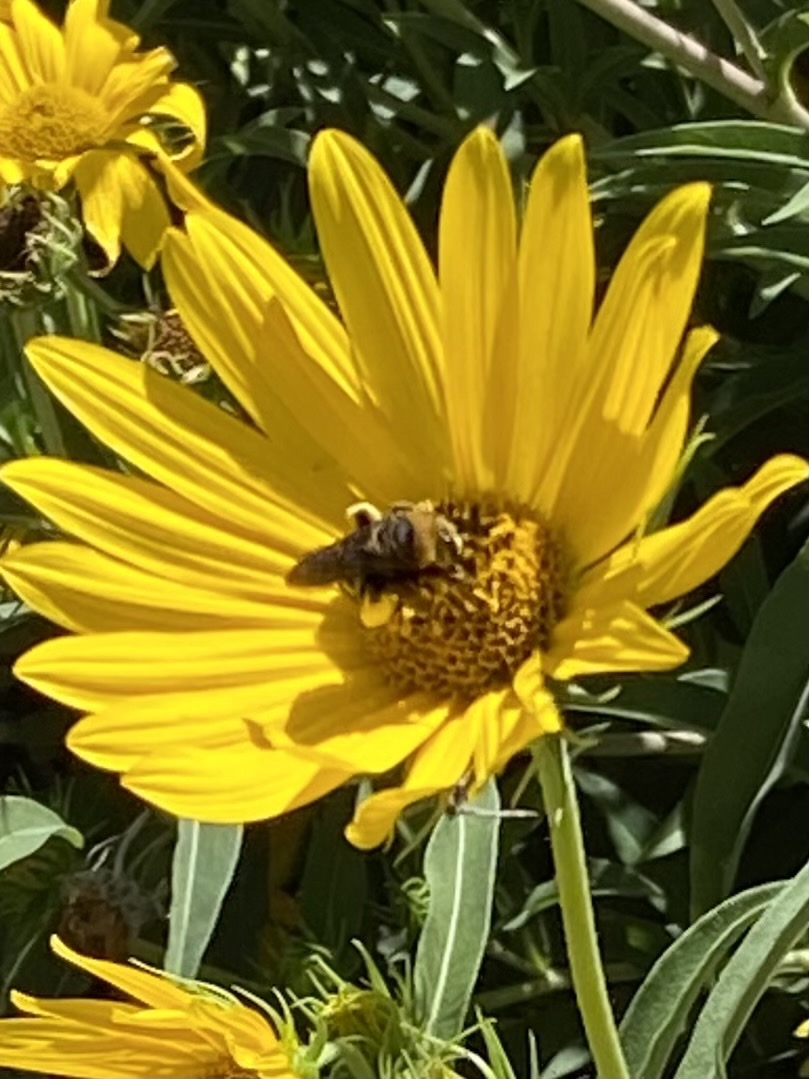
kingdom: Animalia
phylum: Arthropoda
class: Insecta
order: Hymenoptera
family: Apidae
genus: Svastra
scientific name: Svastra obliqua
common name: Oblique longhorn
